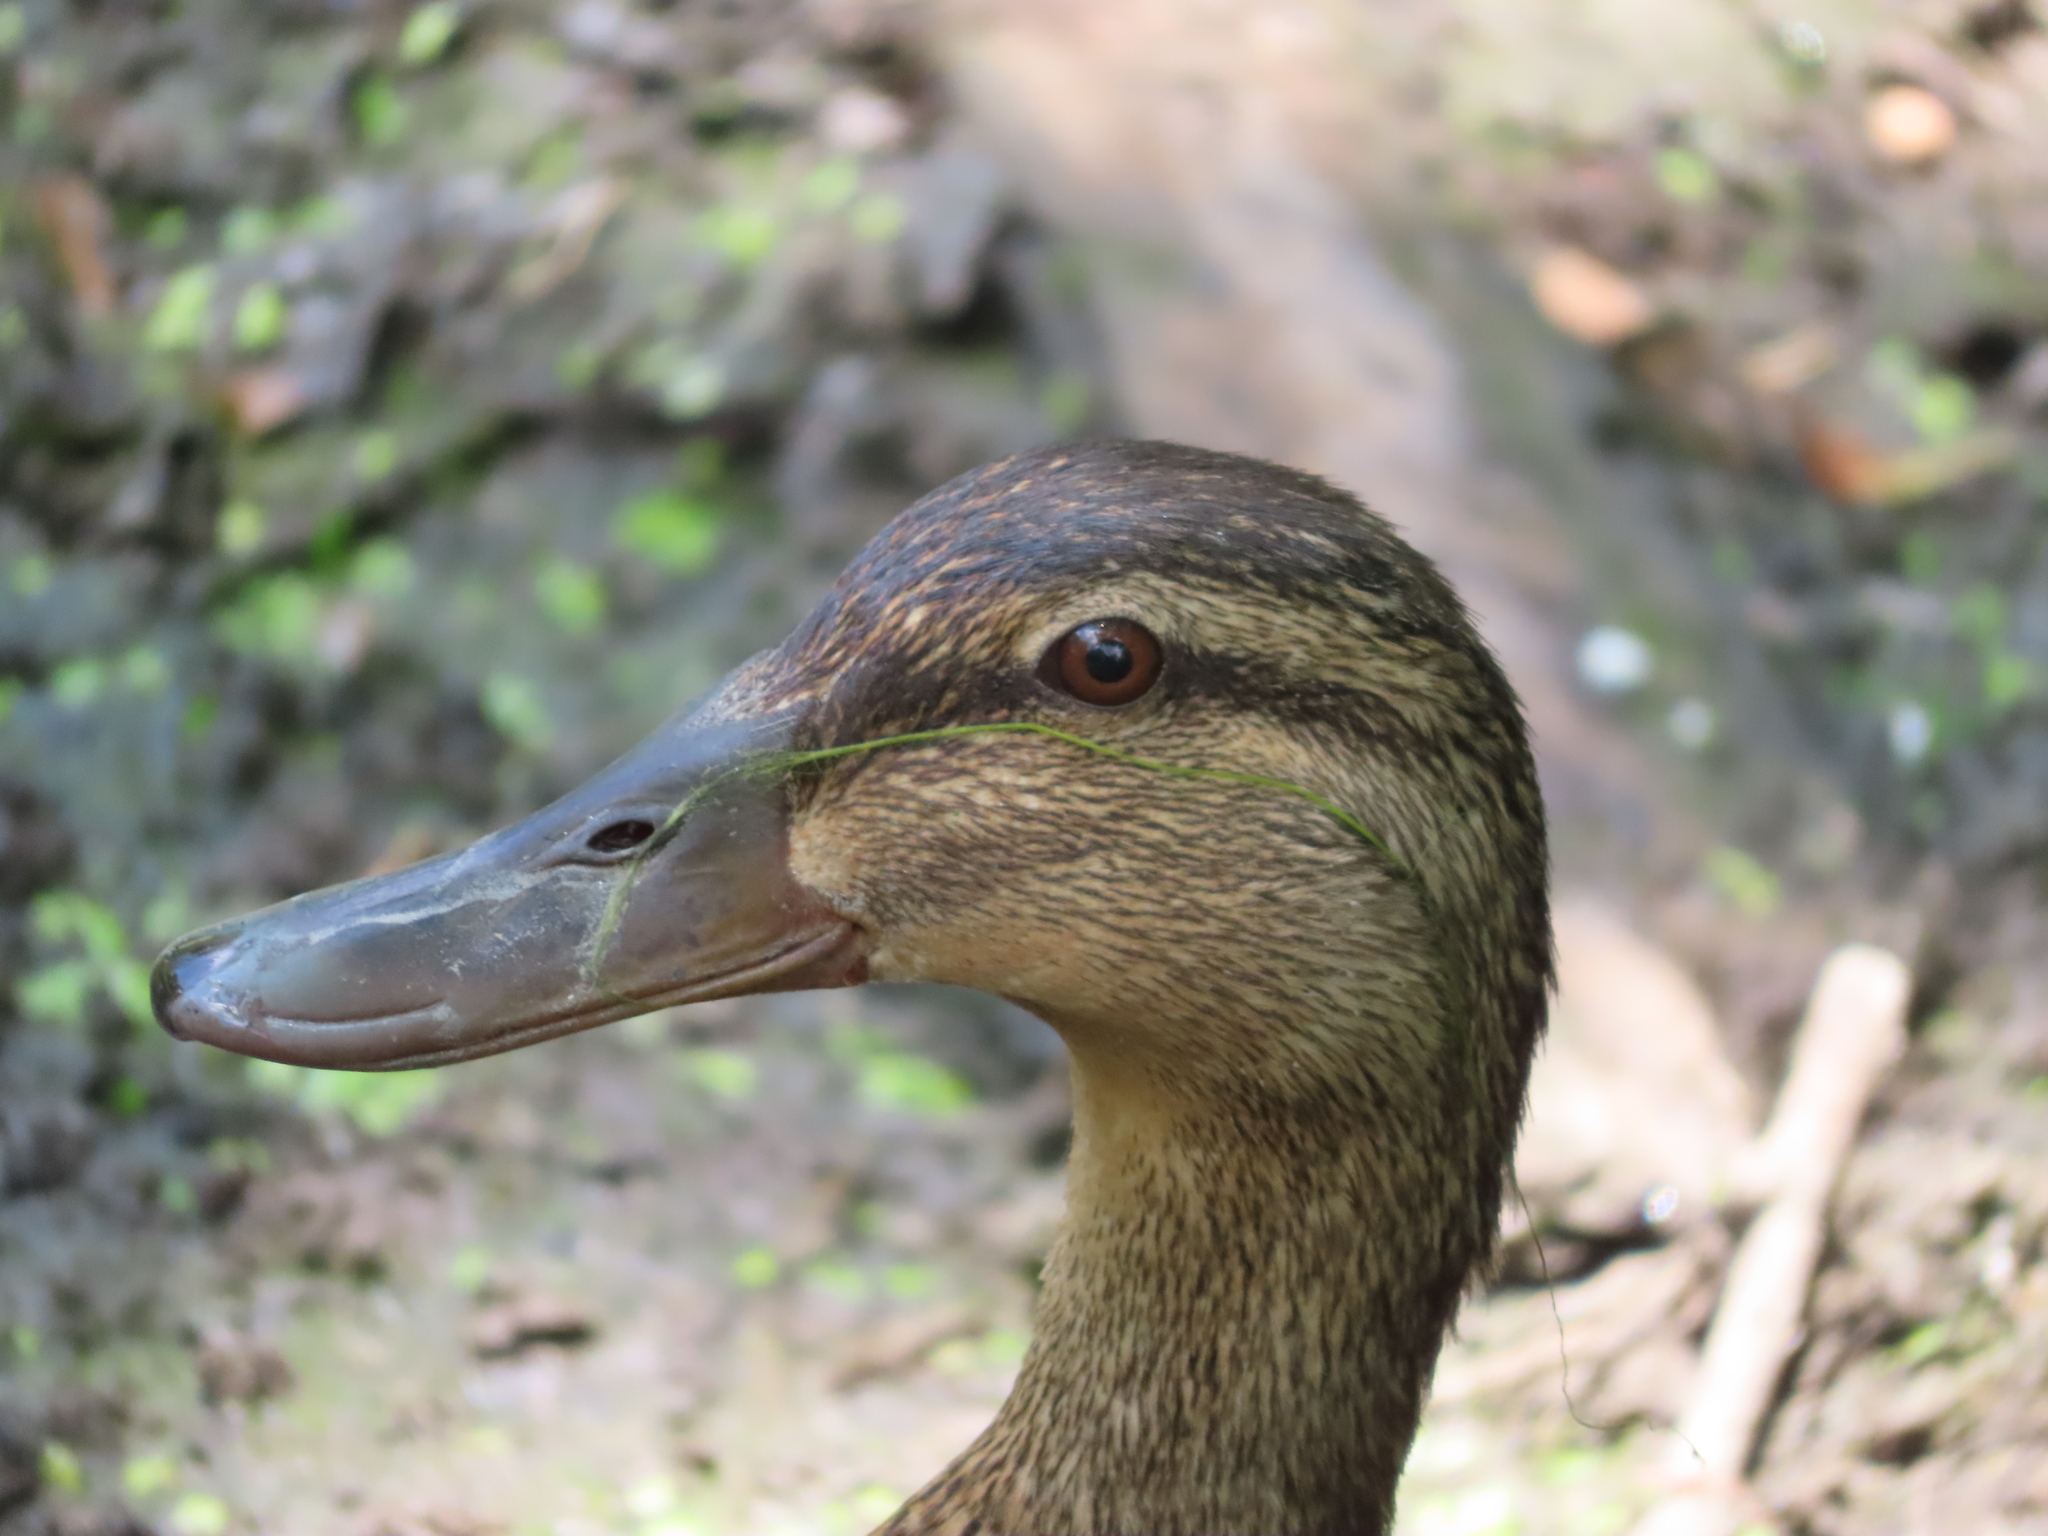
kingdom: Animalia
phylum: Chordata
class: Aves
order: Anseriformes
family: Anatidae
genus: Anas
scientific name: Anas platyrhynchos
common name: Mallard
